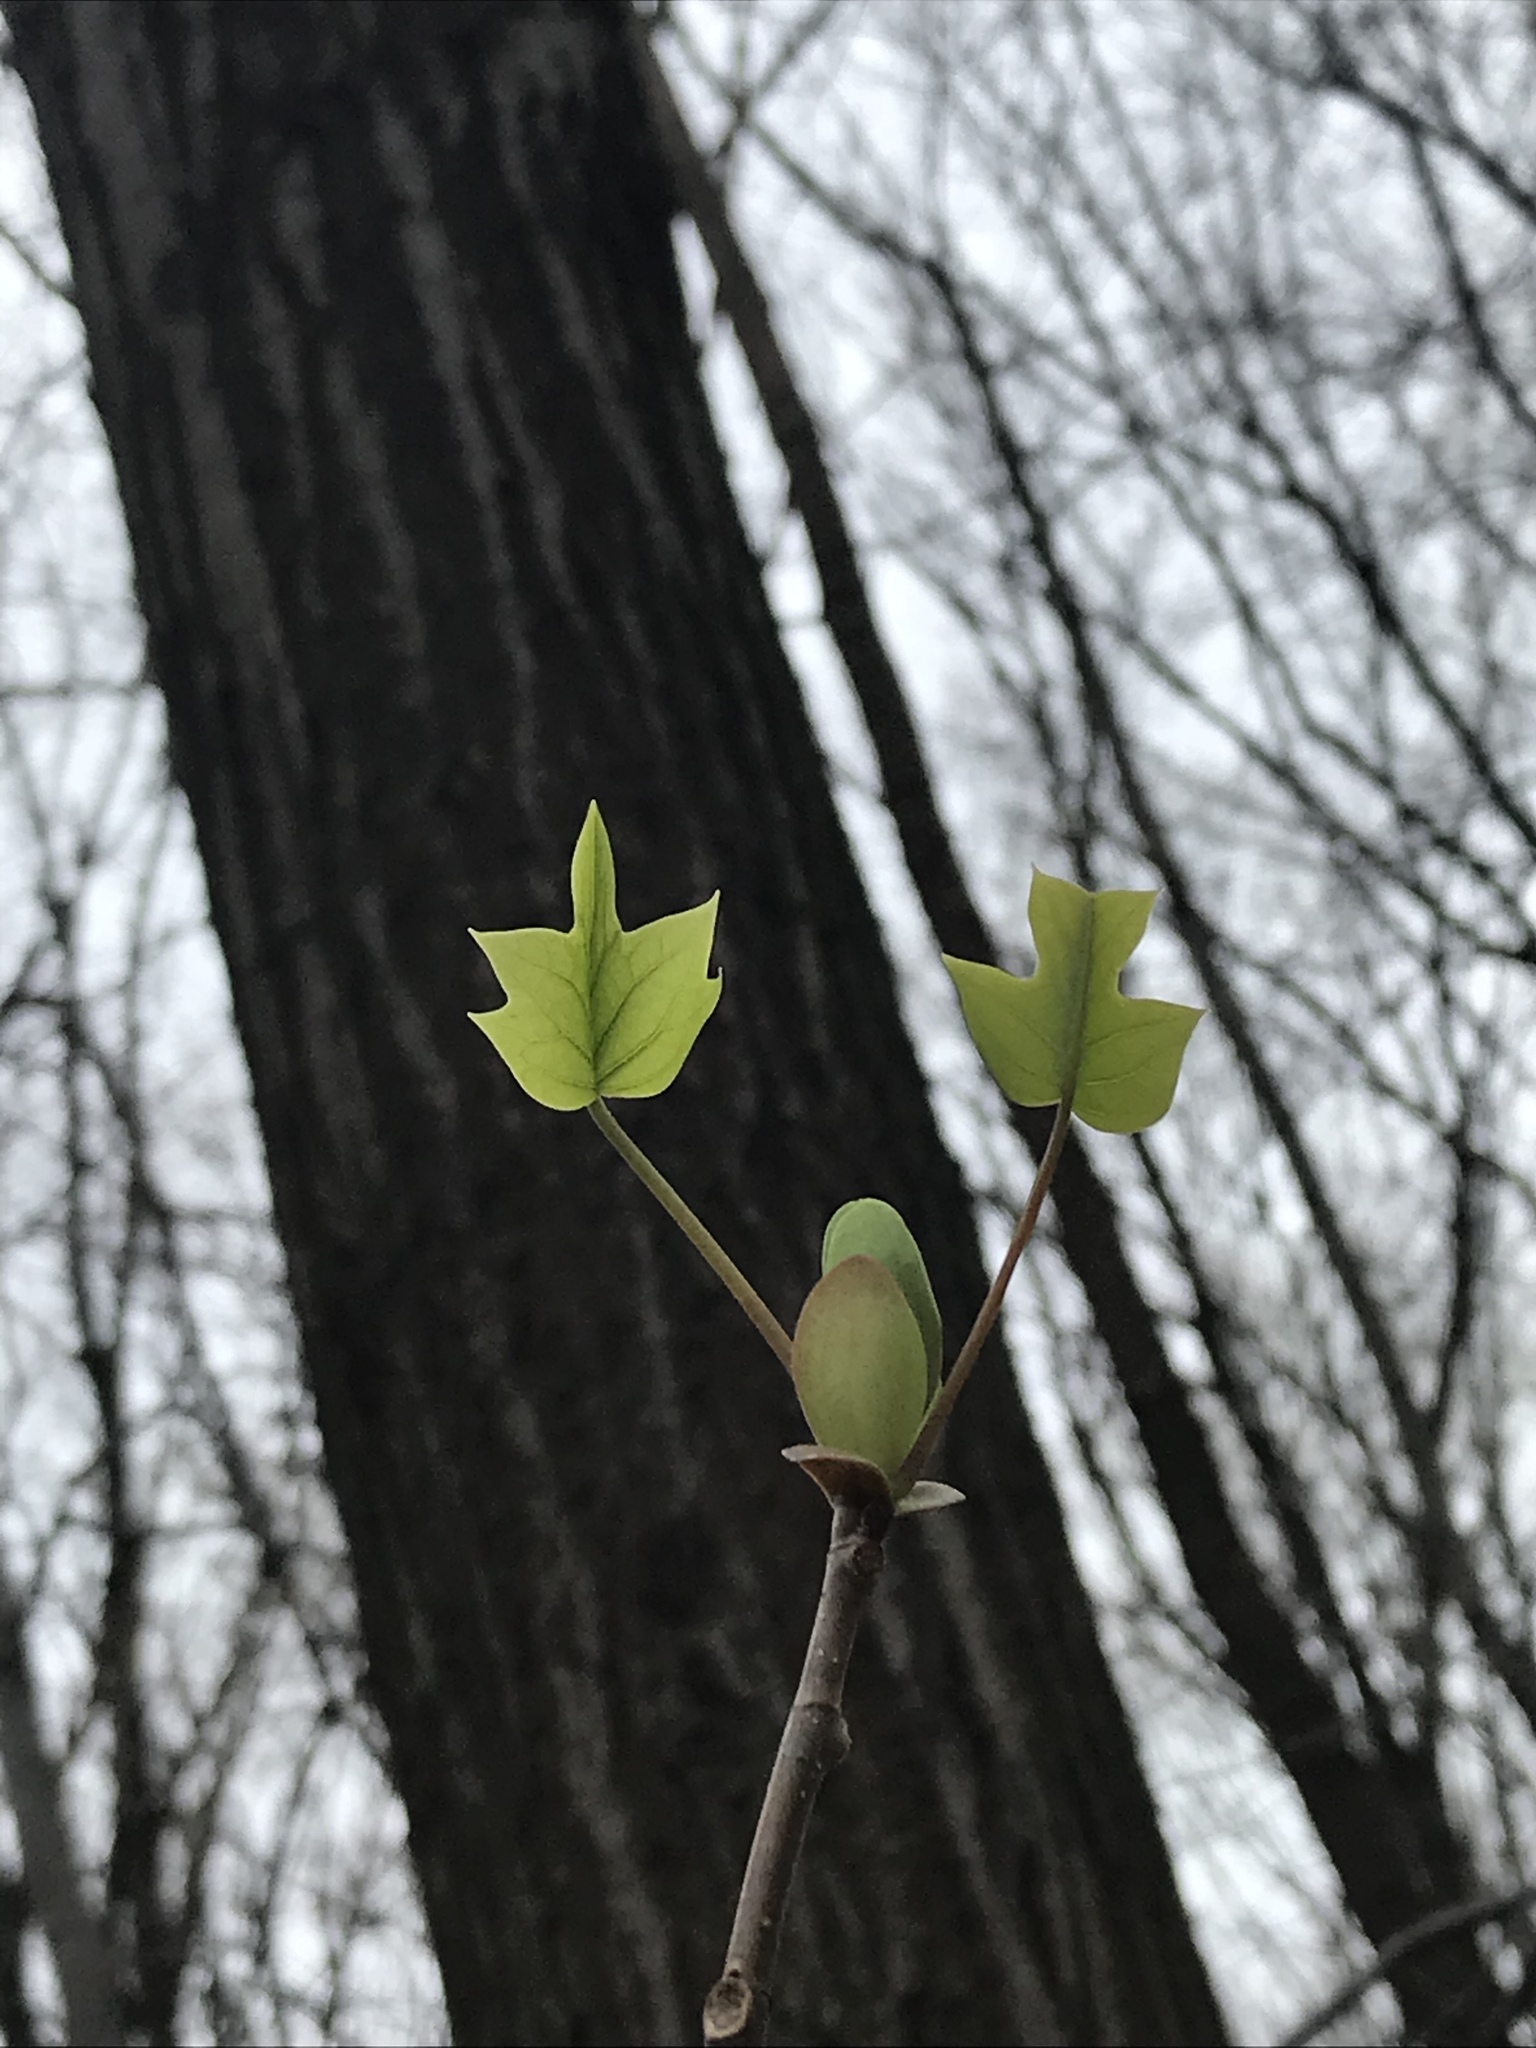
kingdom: Plantae
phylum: Tracheophyta
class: Magnoliopsida
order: Magnoliales
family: Magnoliaceae
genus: Liriodendron
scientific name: Liriodendron tulipifera
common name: Tulip tree
